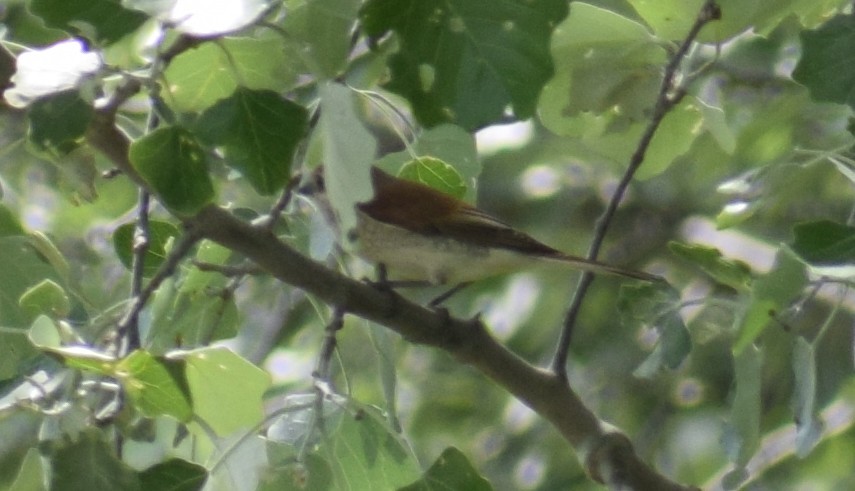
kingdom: Animalia
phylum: Chordata
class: Aves
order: Passeriformes
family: Laniidae
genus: Lanius
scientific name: Lanius collurio
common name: Red-backed shrike
